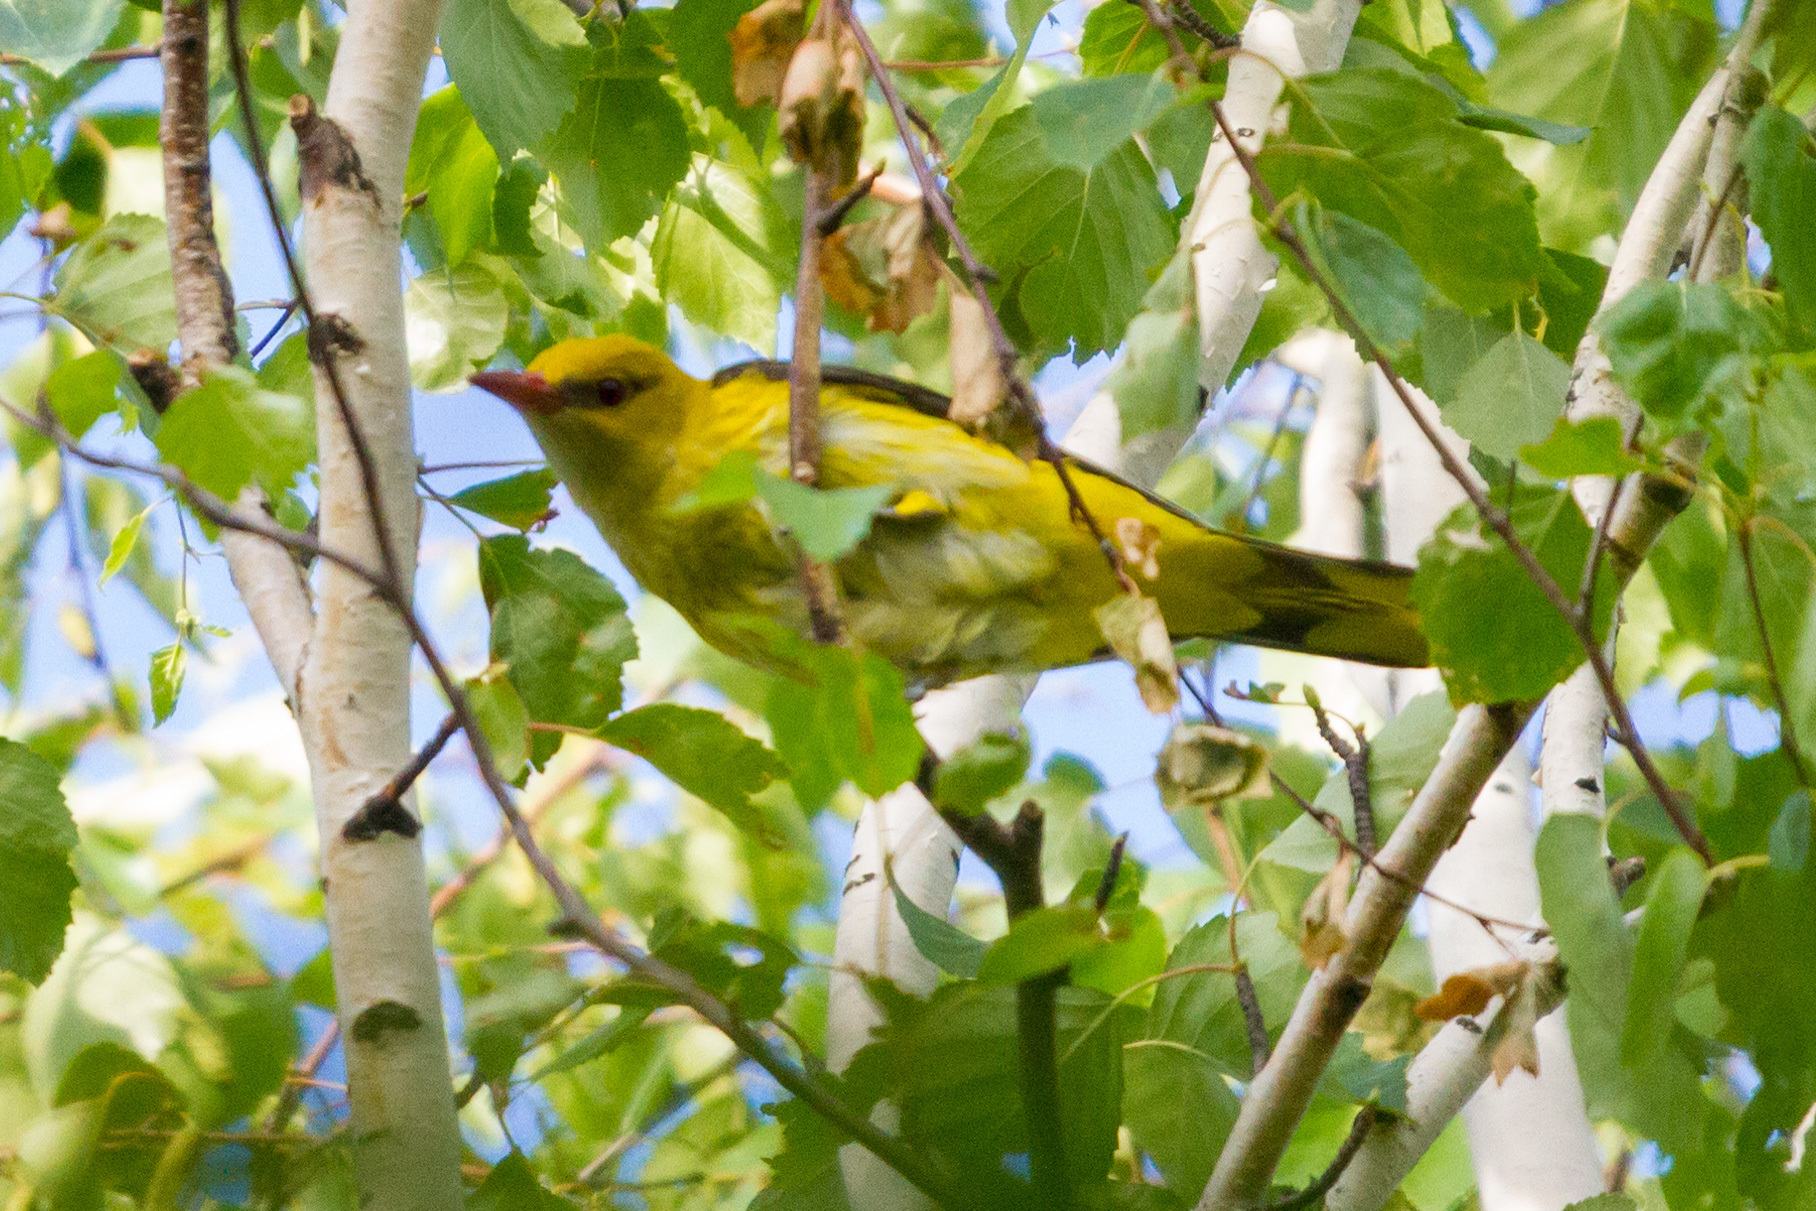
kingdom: Animalia
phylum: Chordata
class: Aves
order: Passeriformes
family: Oriolidae
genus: Oriolus
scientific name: Oriolus oriolus
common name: Eurasian golden oriole
